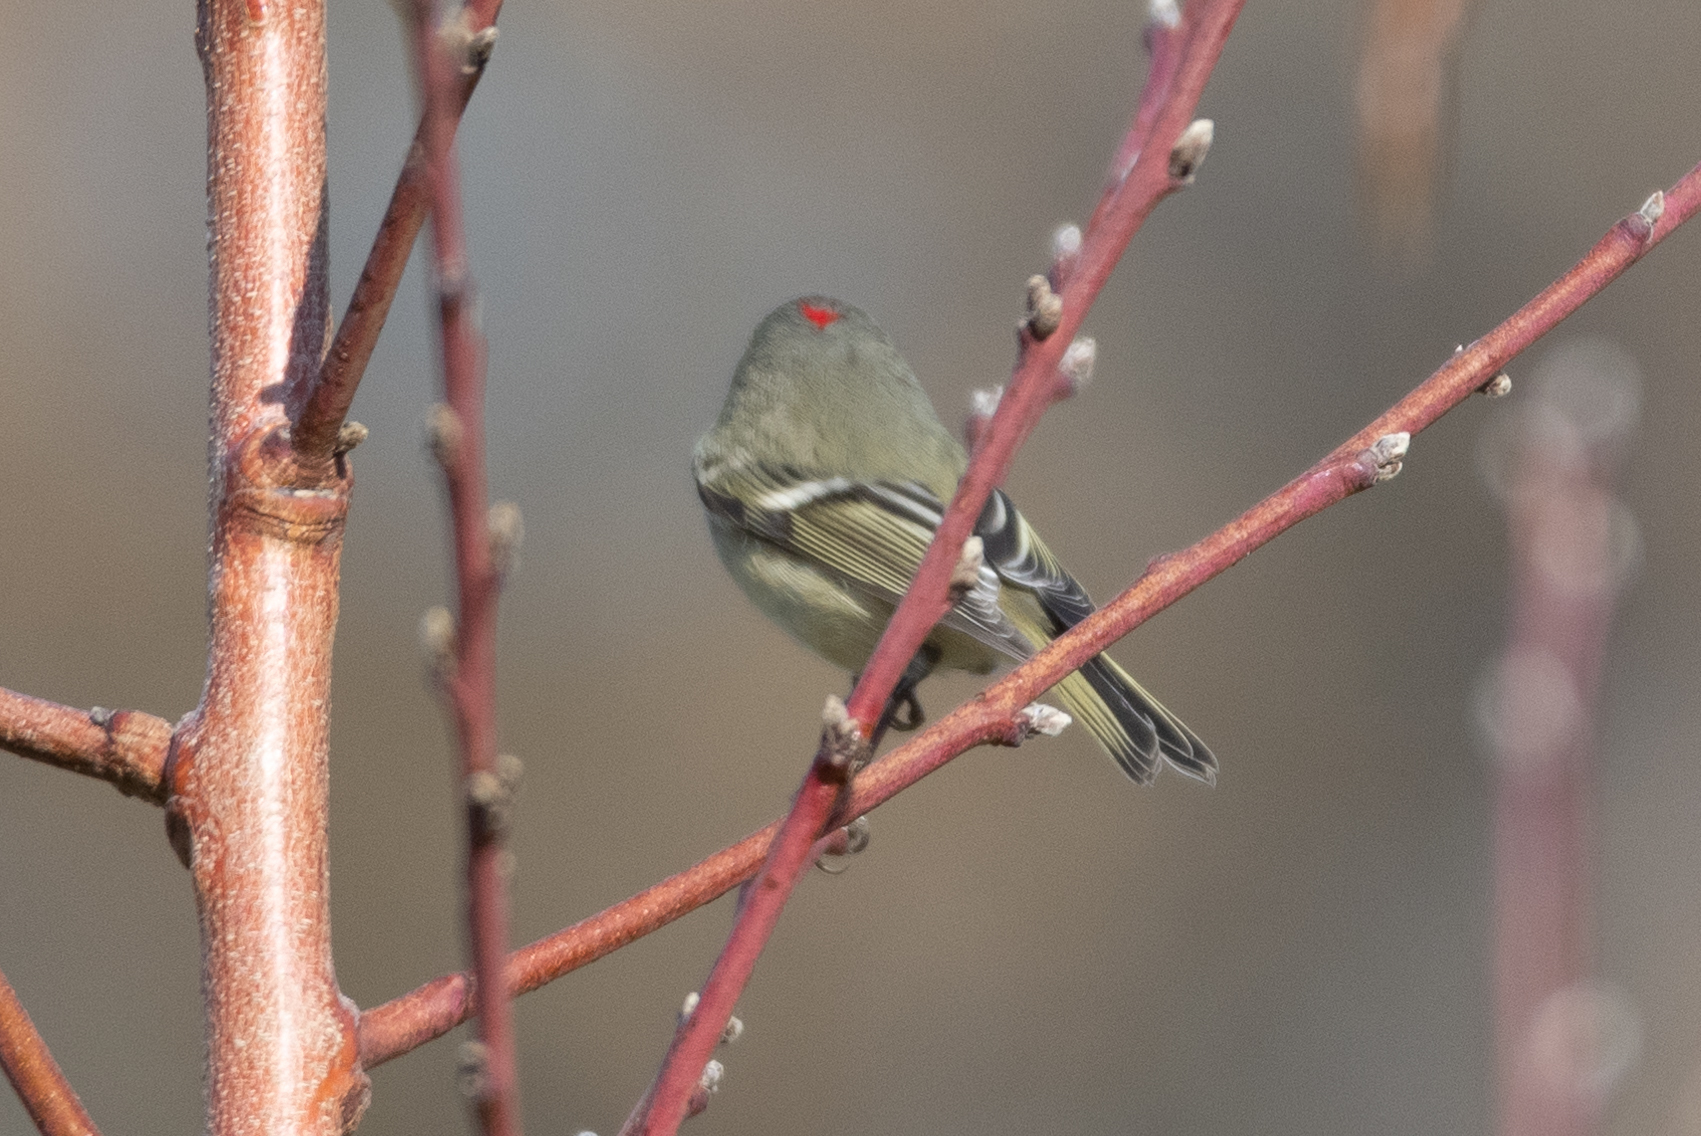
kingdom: Animalia
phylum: Chordata
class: Aves
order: Passeriformes
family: Regulidae
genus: Regulus
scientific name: Regulus calendula
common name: Ruby-crowned kinglet
